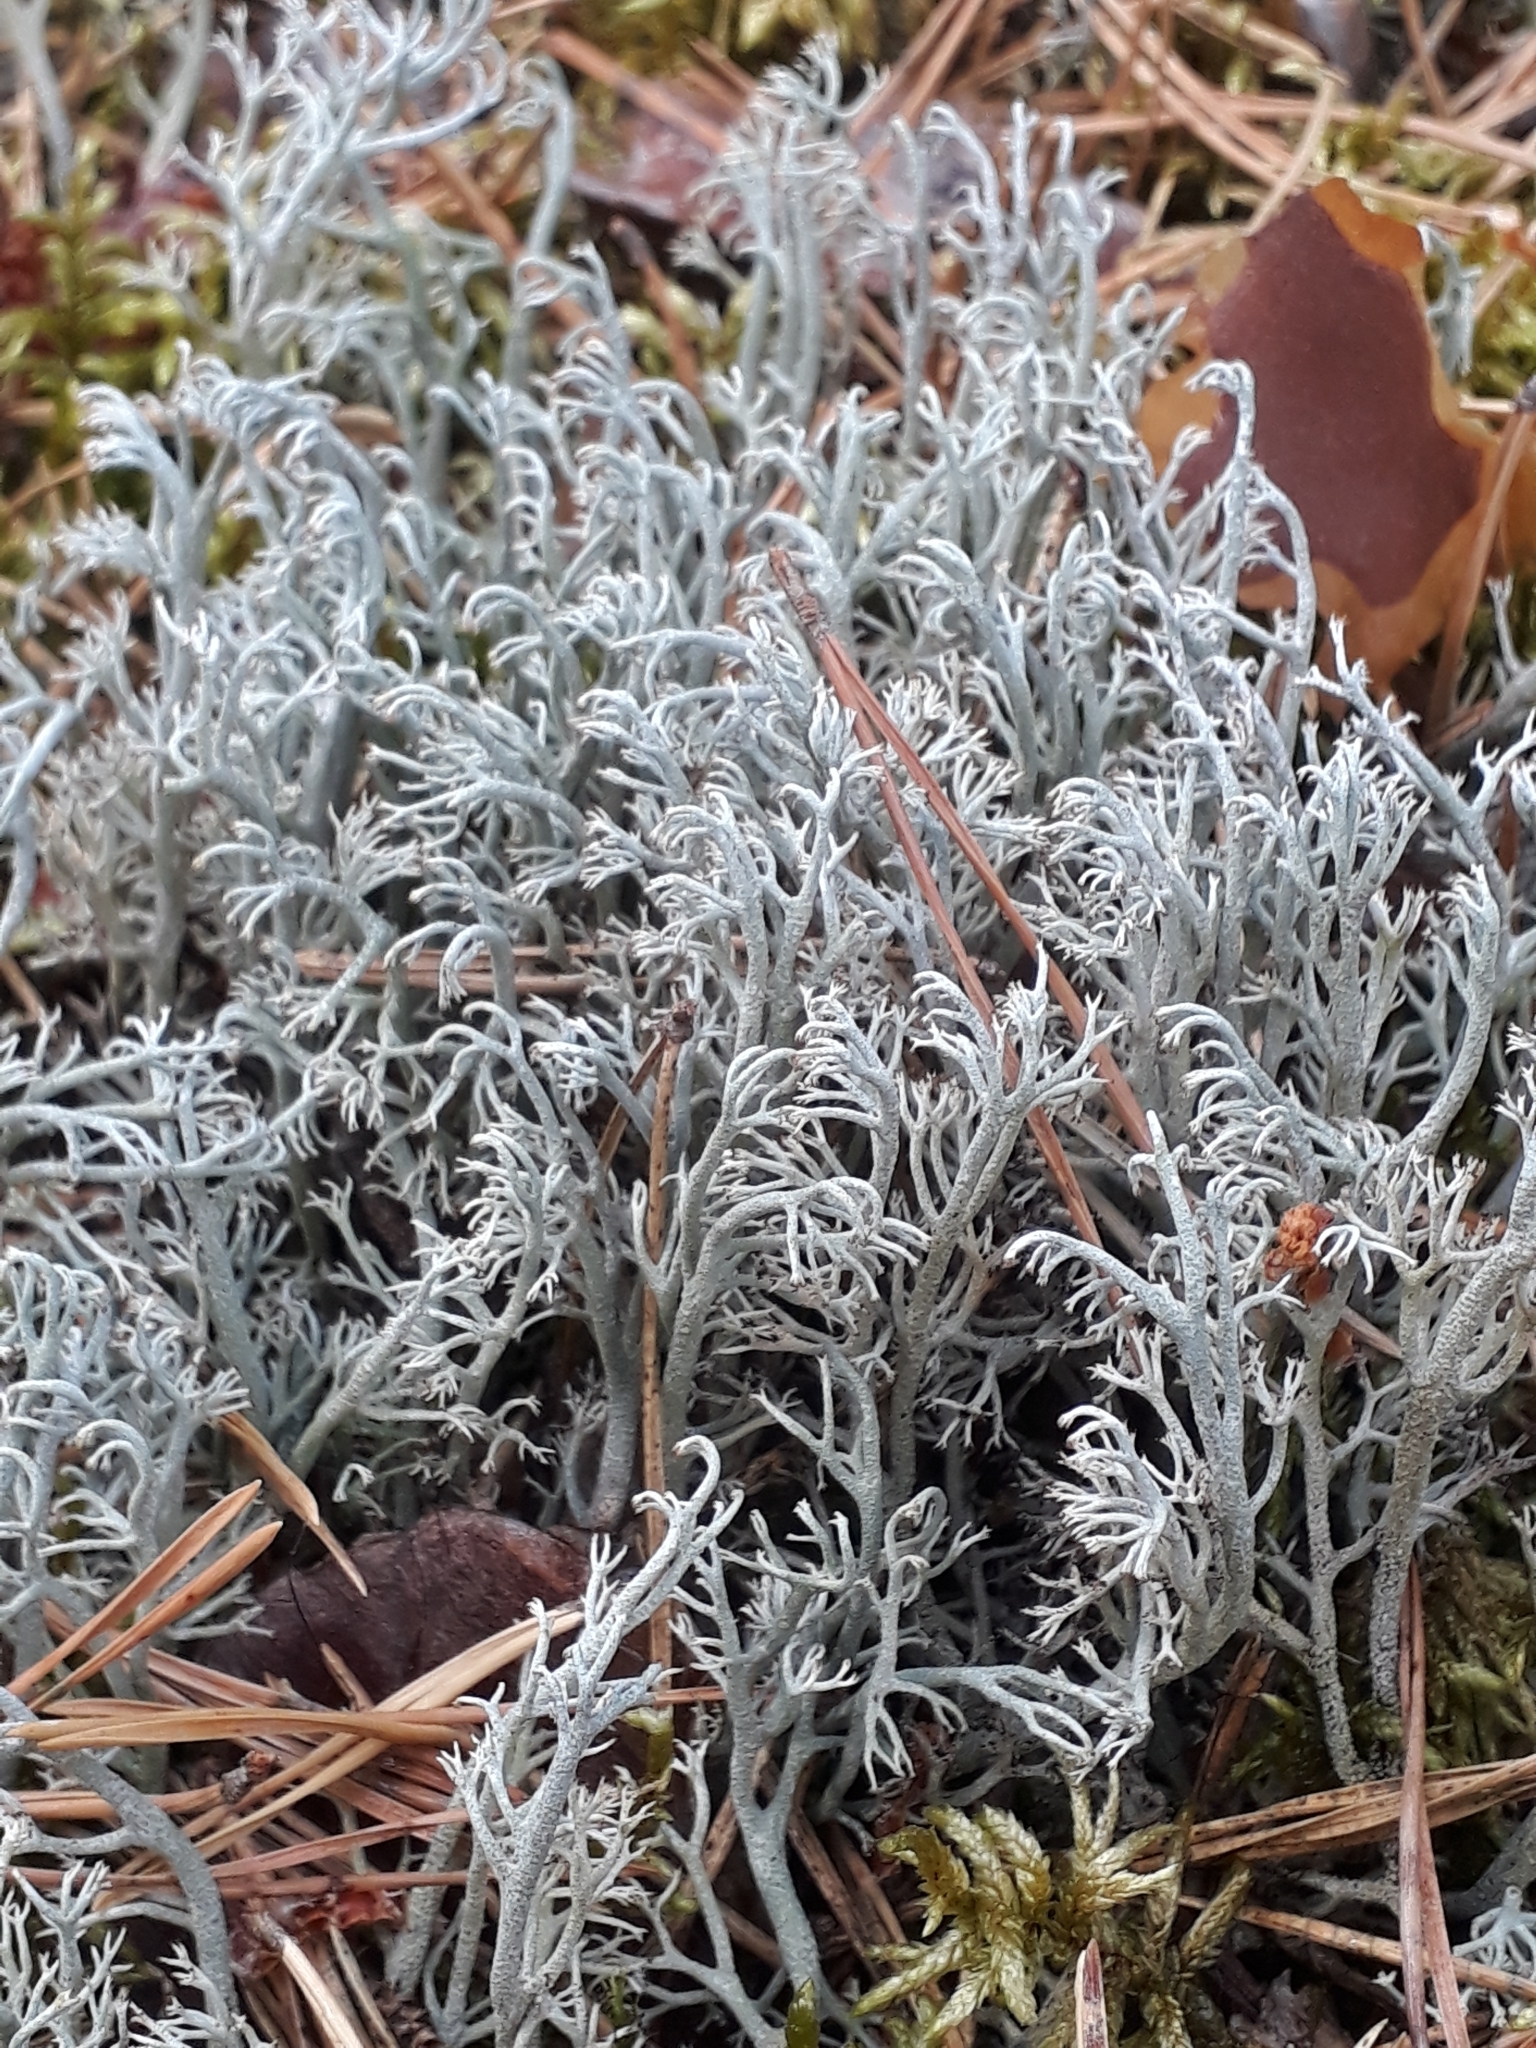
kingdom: Fungi
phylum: Ascomycota
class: Lecanoromycetes
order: Lecanorales
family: Cladoniaceae
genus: Cladonia
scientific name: Cladonia stygia
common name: Black-footed reindeer lichen
